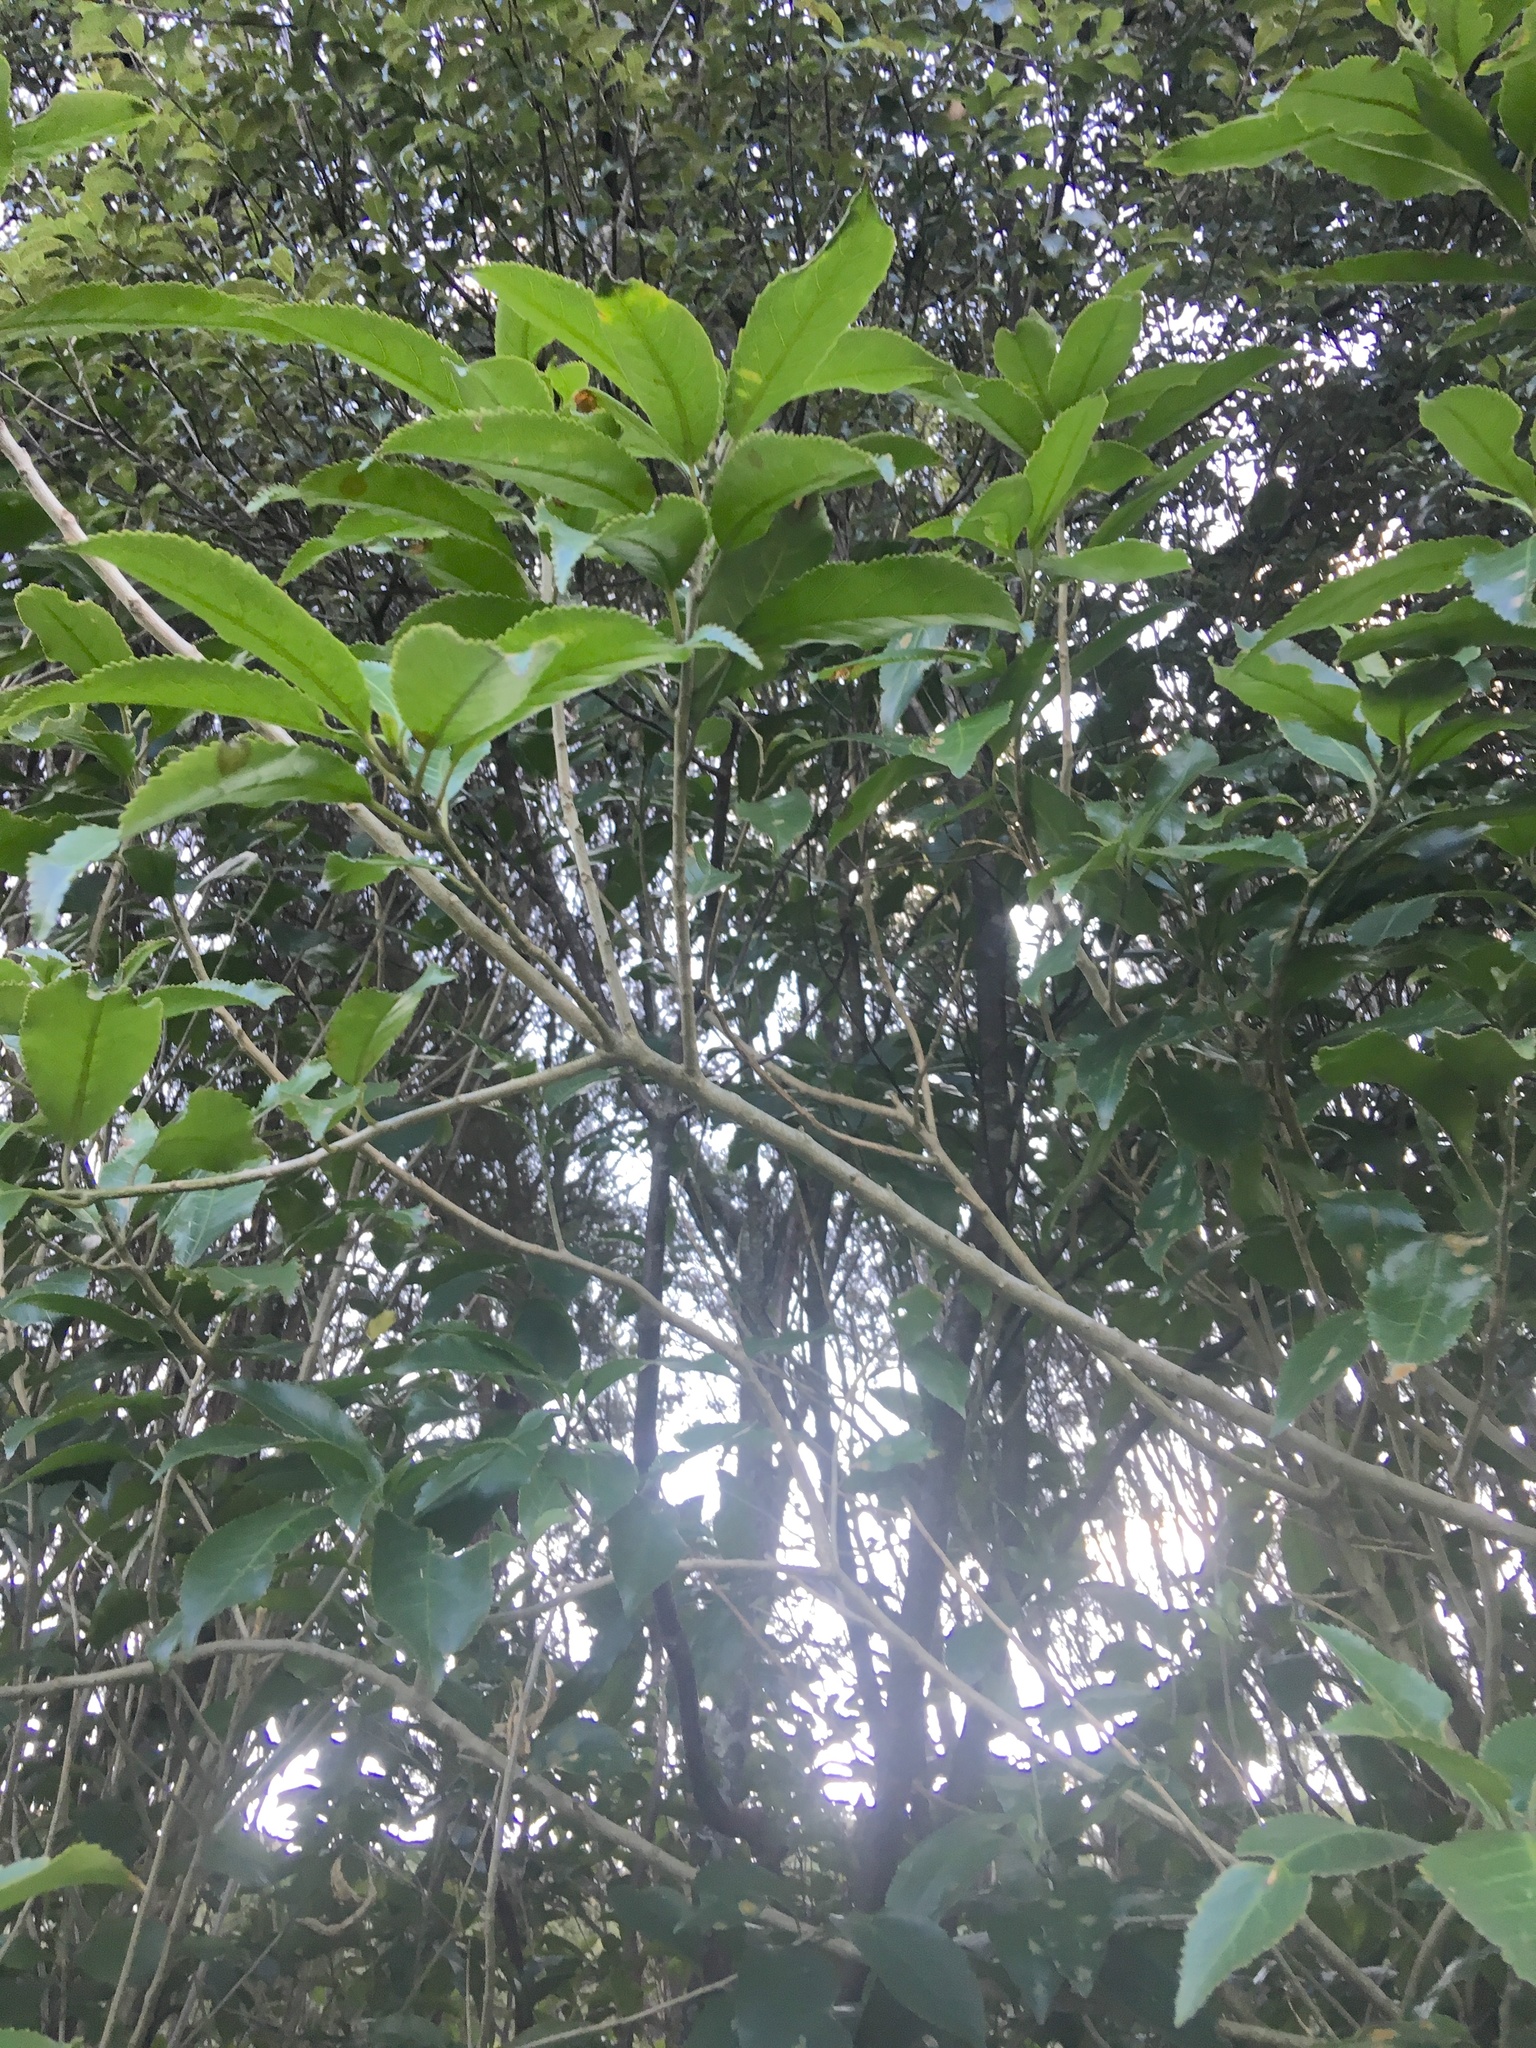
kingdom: Plantae
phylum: Tracheophyta
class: Magnoliopsida
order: Malpighiales
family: Violaceae
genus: Melicytus
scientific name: Melicytus ramiflorus
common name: Mahoe
